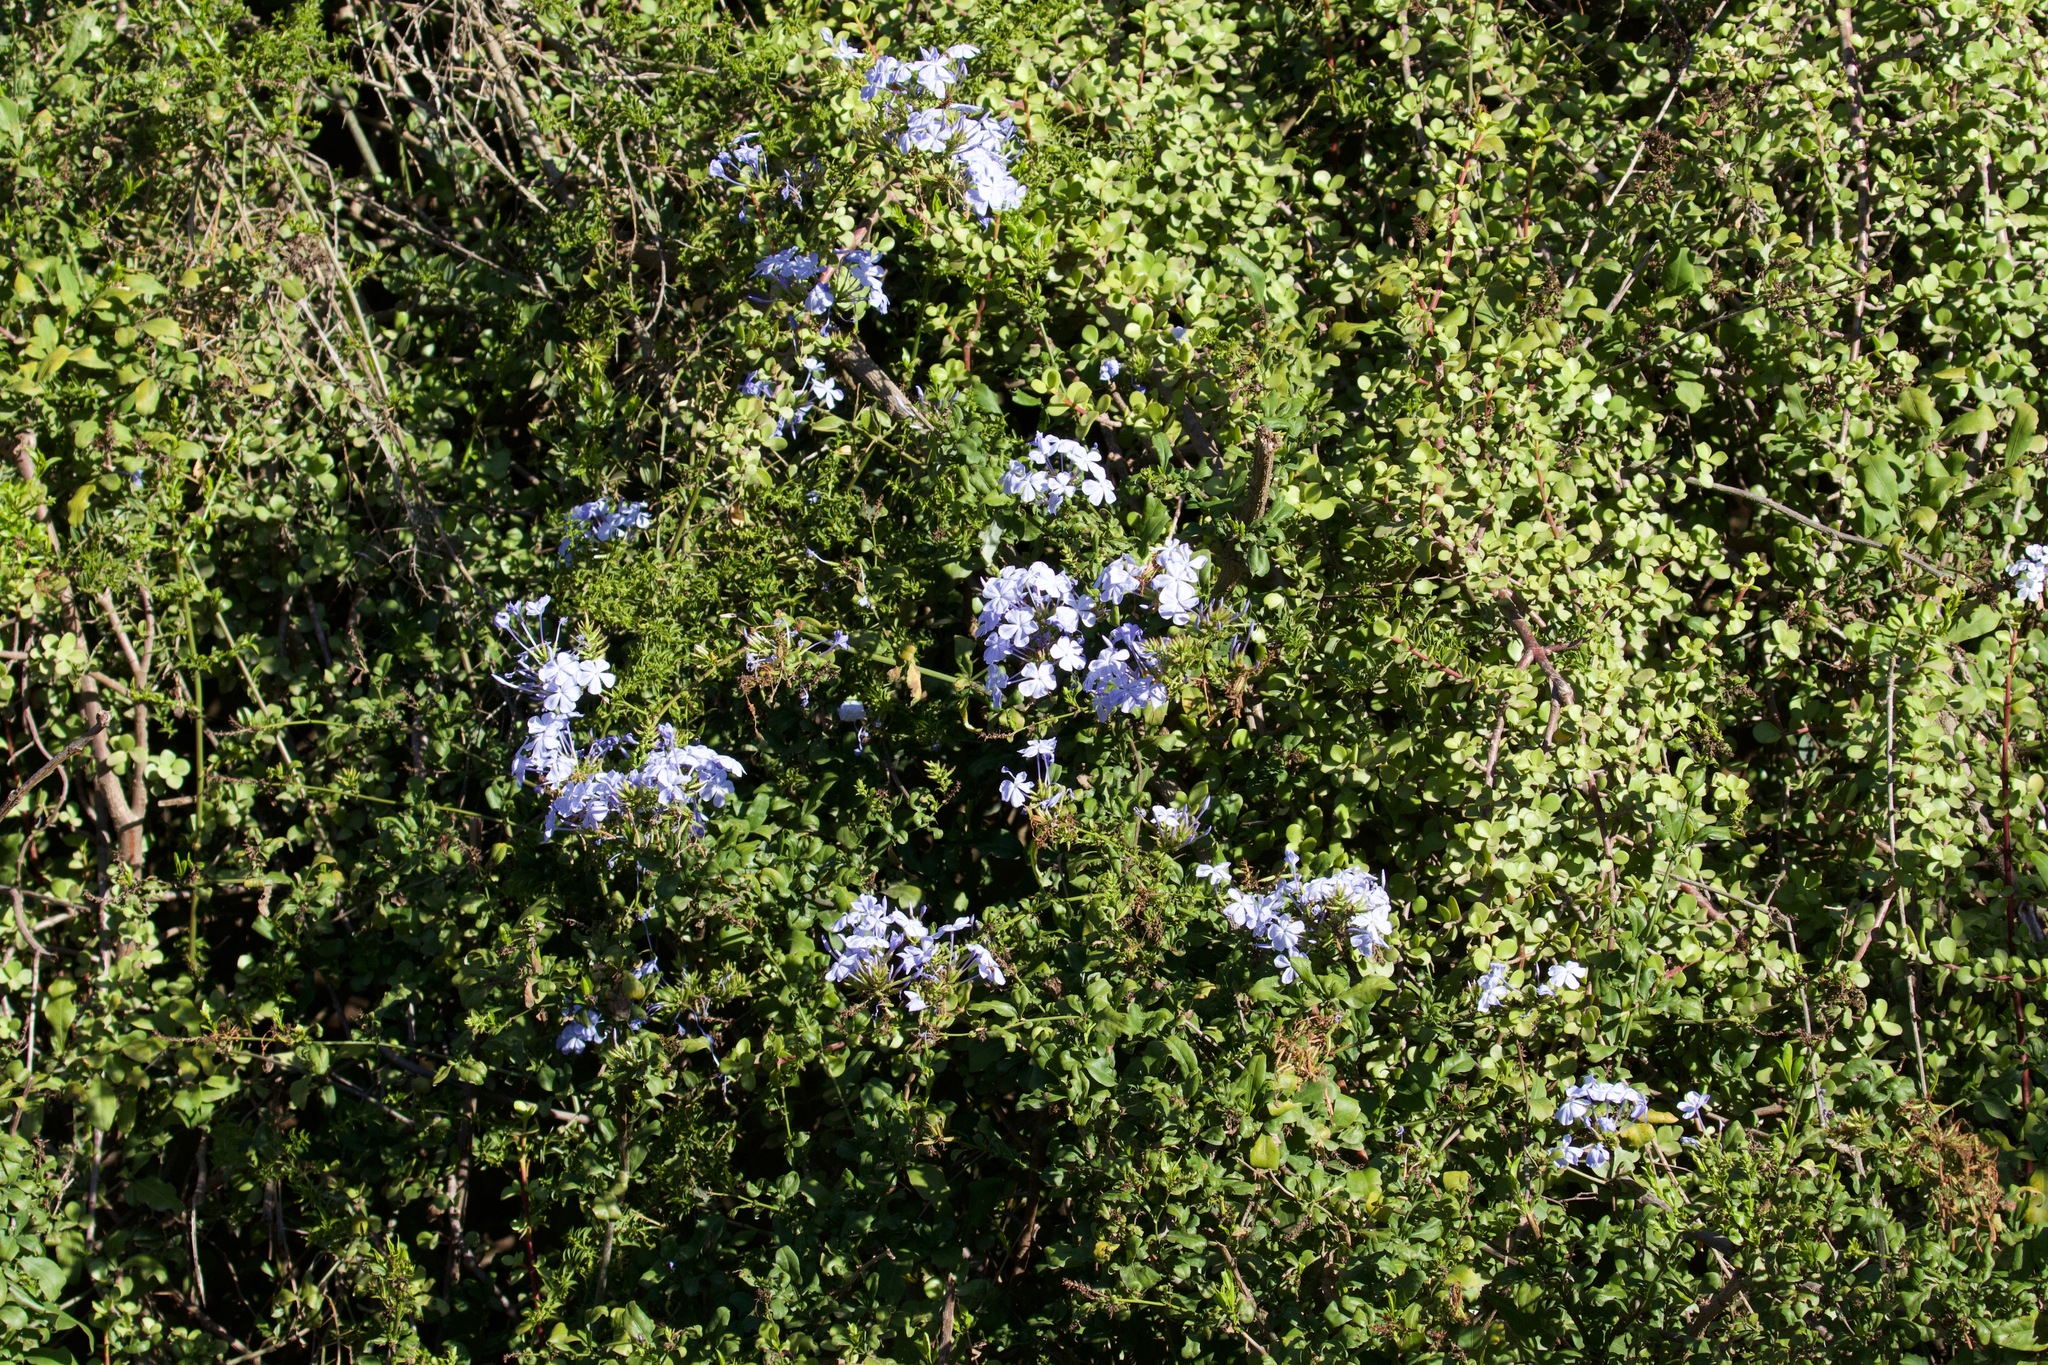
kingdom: Plantae
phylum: Tracheophyta
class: Magnoliopsida
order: Caryophyllales
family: Plumbaginaceae
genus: Plumbago
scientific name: Plumbago auriculata
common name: Cape leadwort
